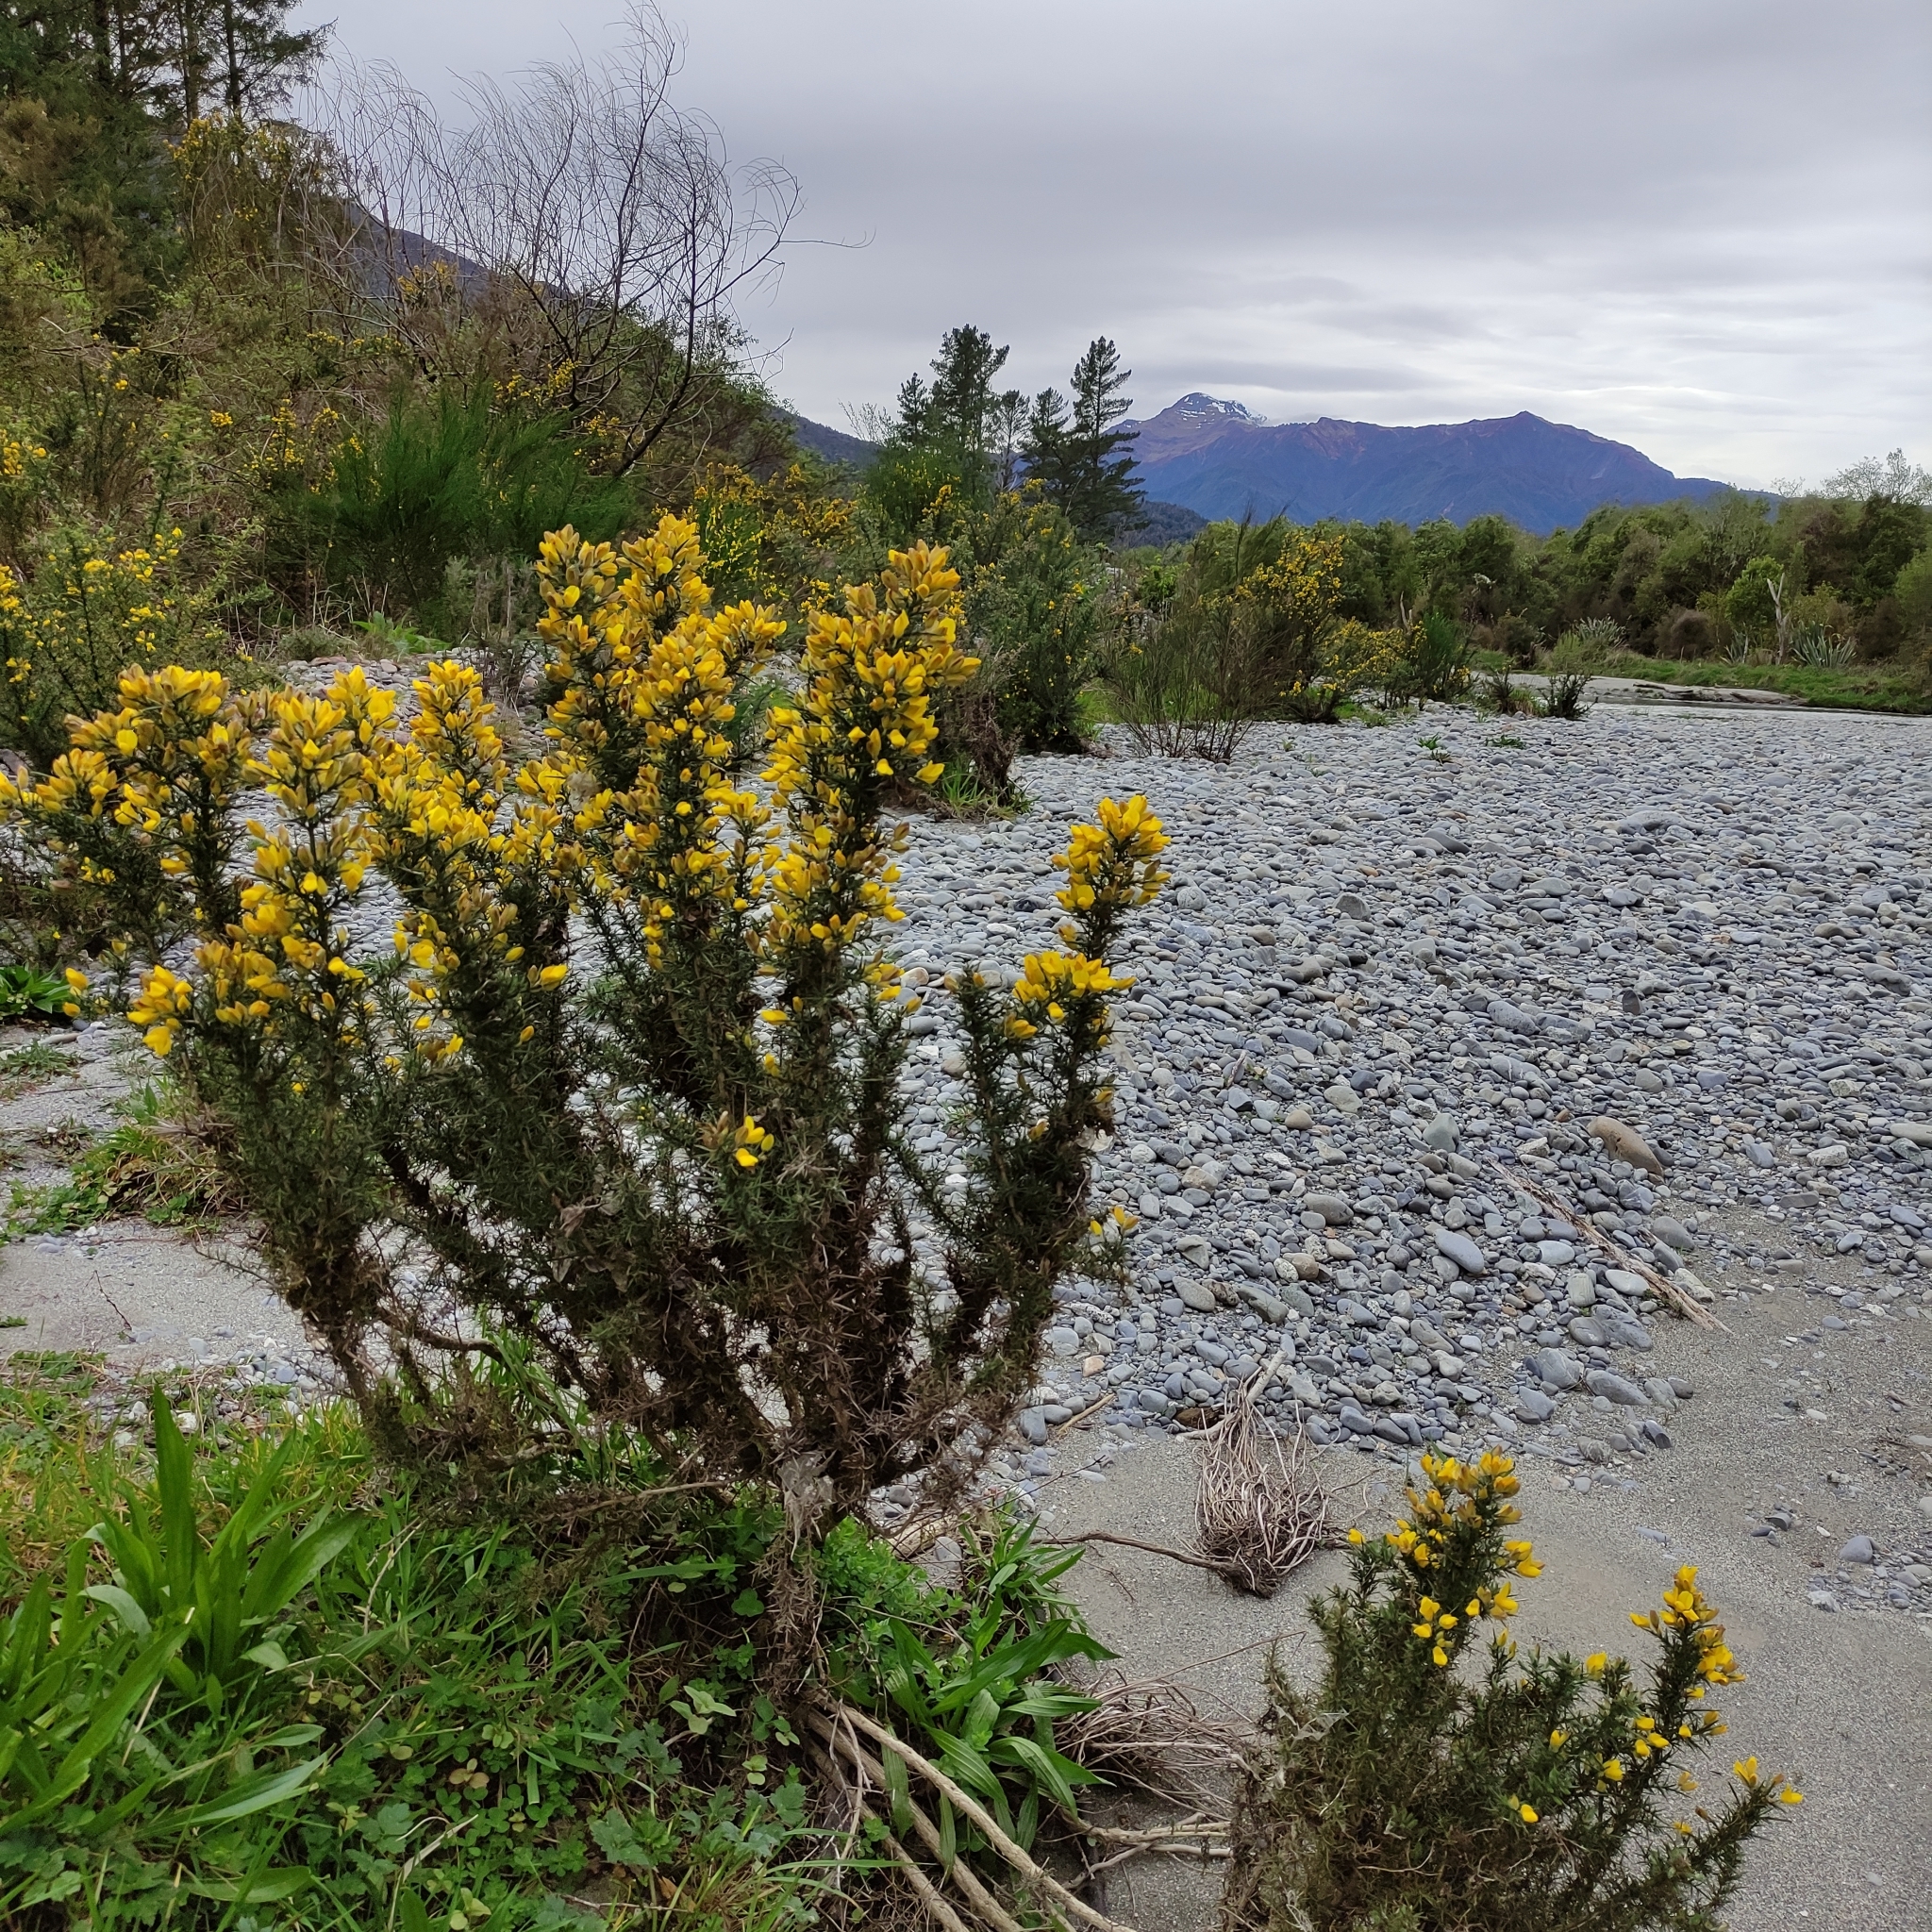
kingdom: Plantae
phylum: Tracheophyta
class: Magnoliopsida
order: Fabales
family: Fabaceae
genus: Ulex
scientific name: Ulex europaeus
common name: Common gorse
